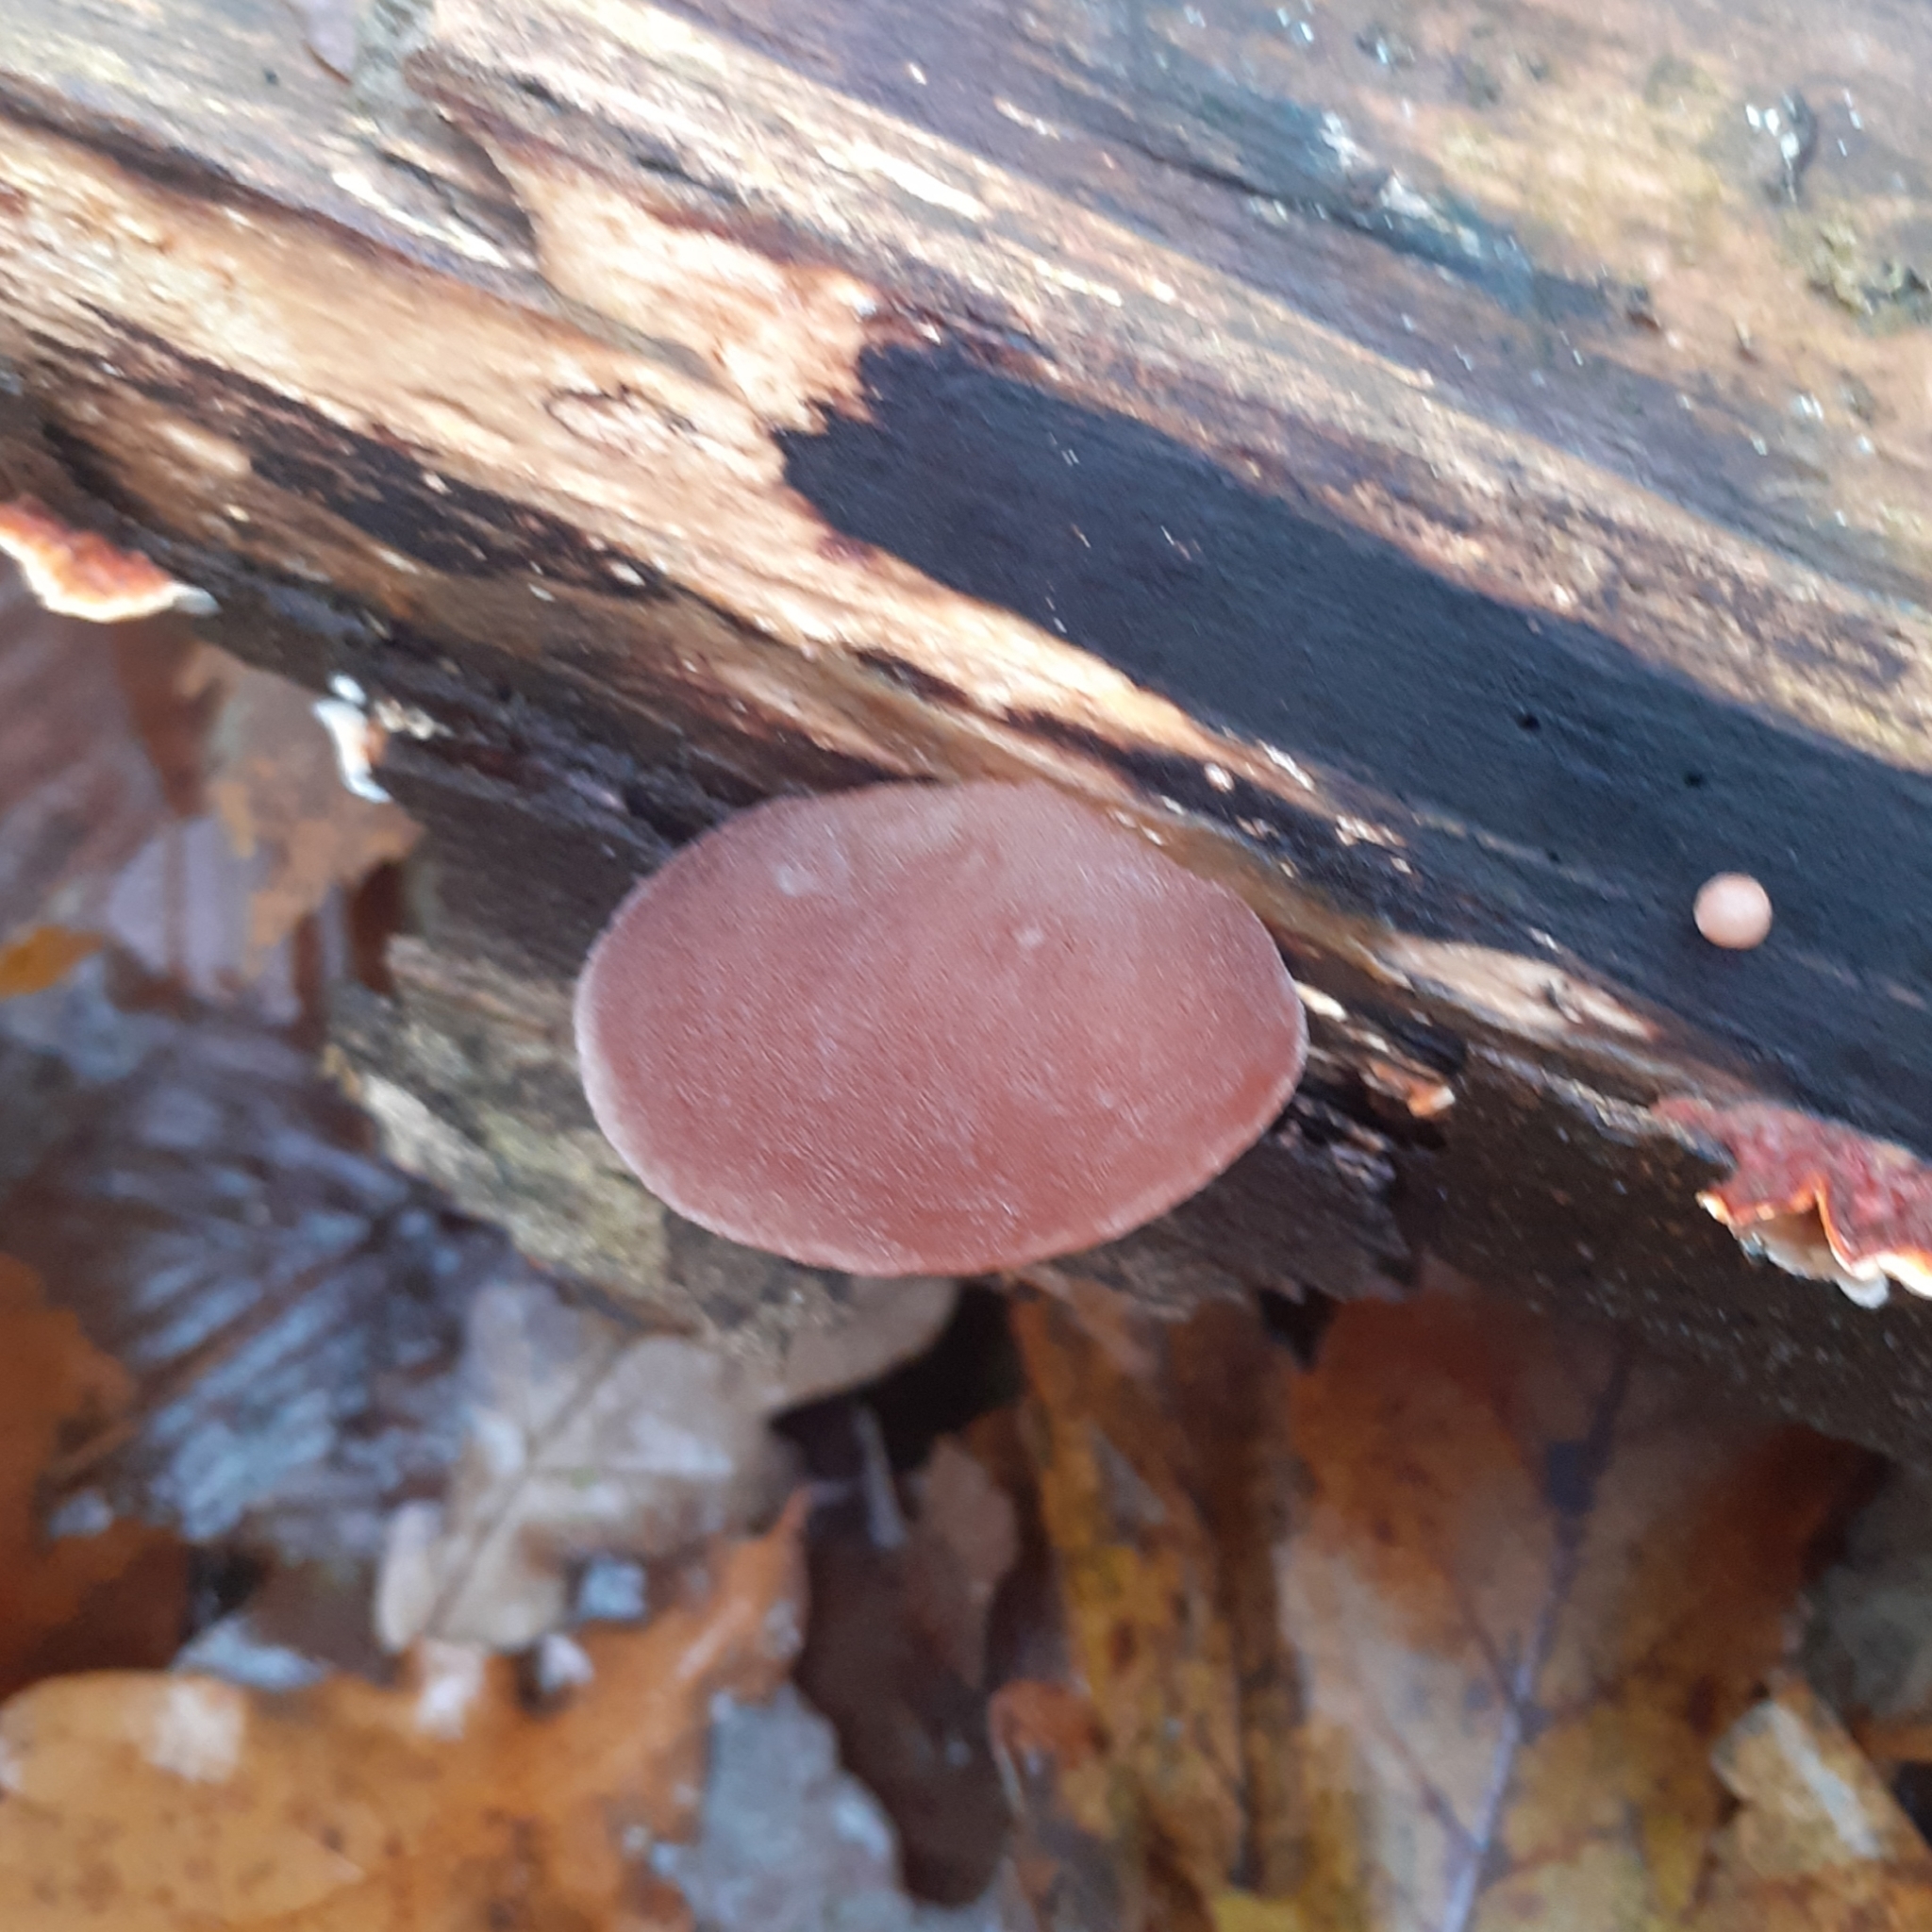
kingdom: Fungi
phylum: Basidiomycota
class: Agaricomycetes
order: Auriculariales
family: Auriculariaceae
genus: Auricularia
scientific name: Auricularia auricula-judae
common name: Jelly ear
